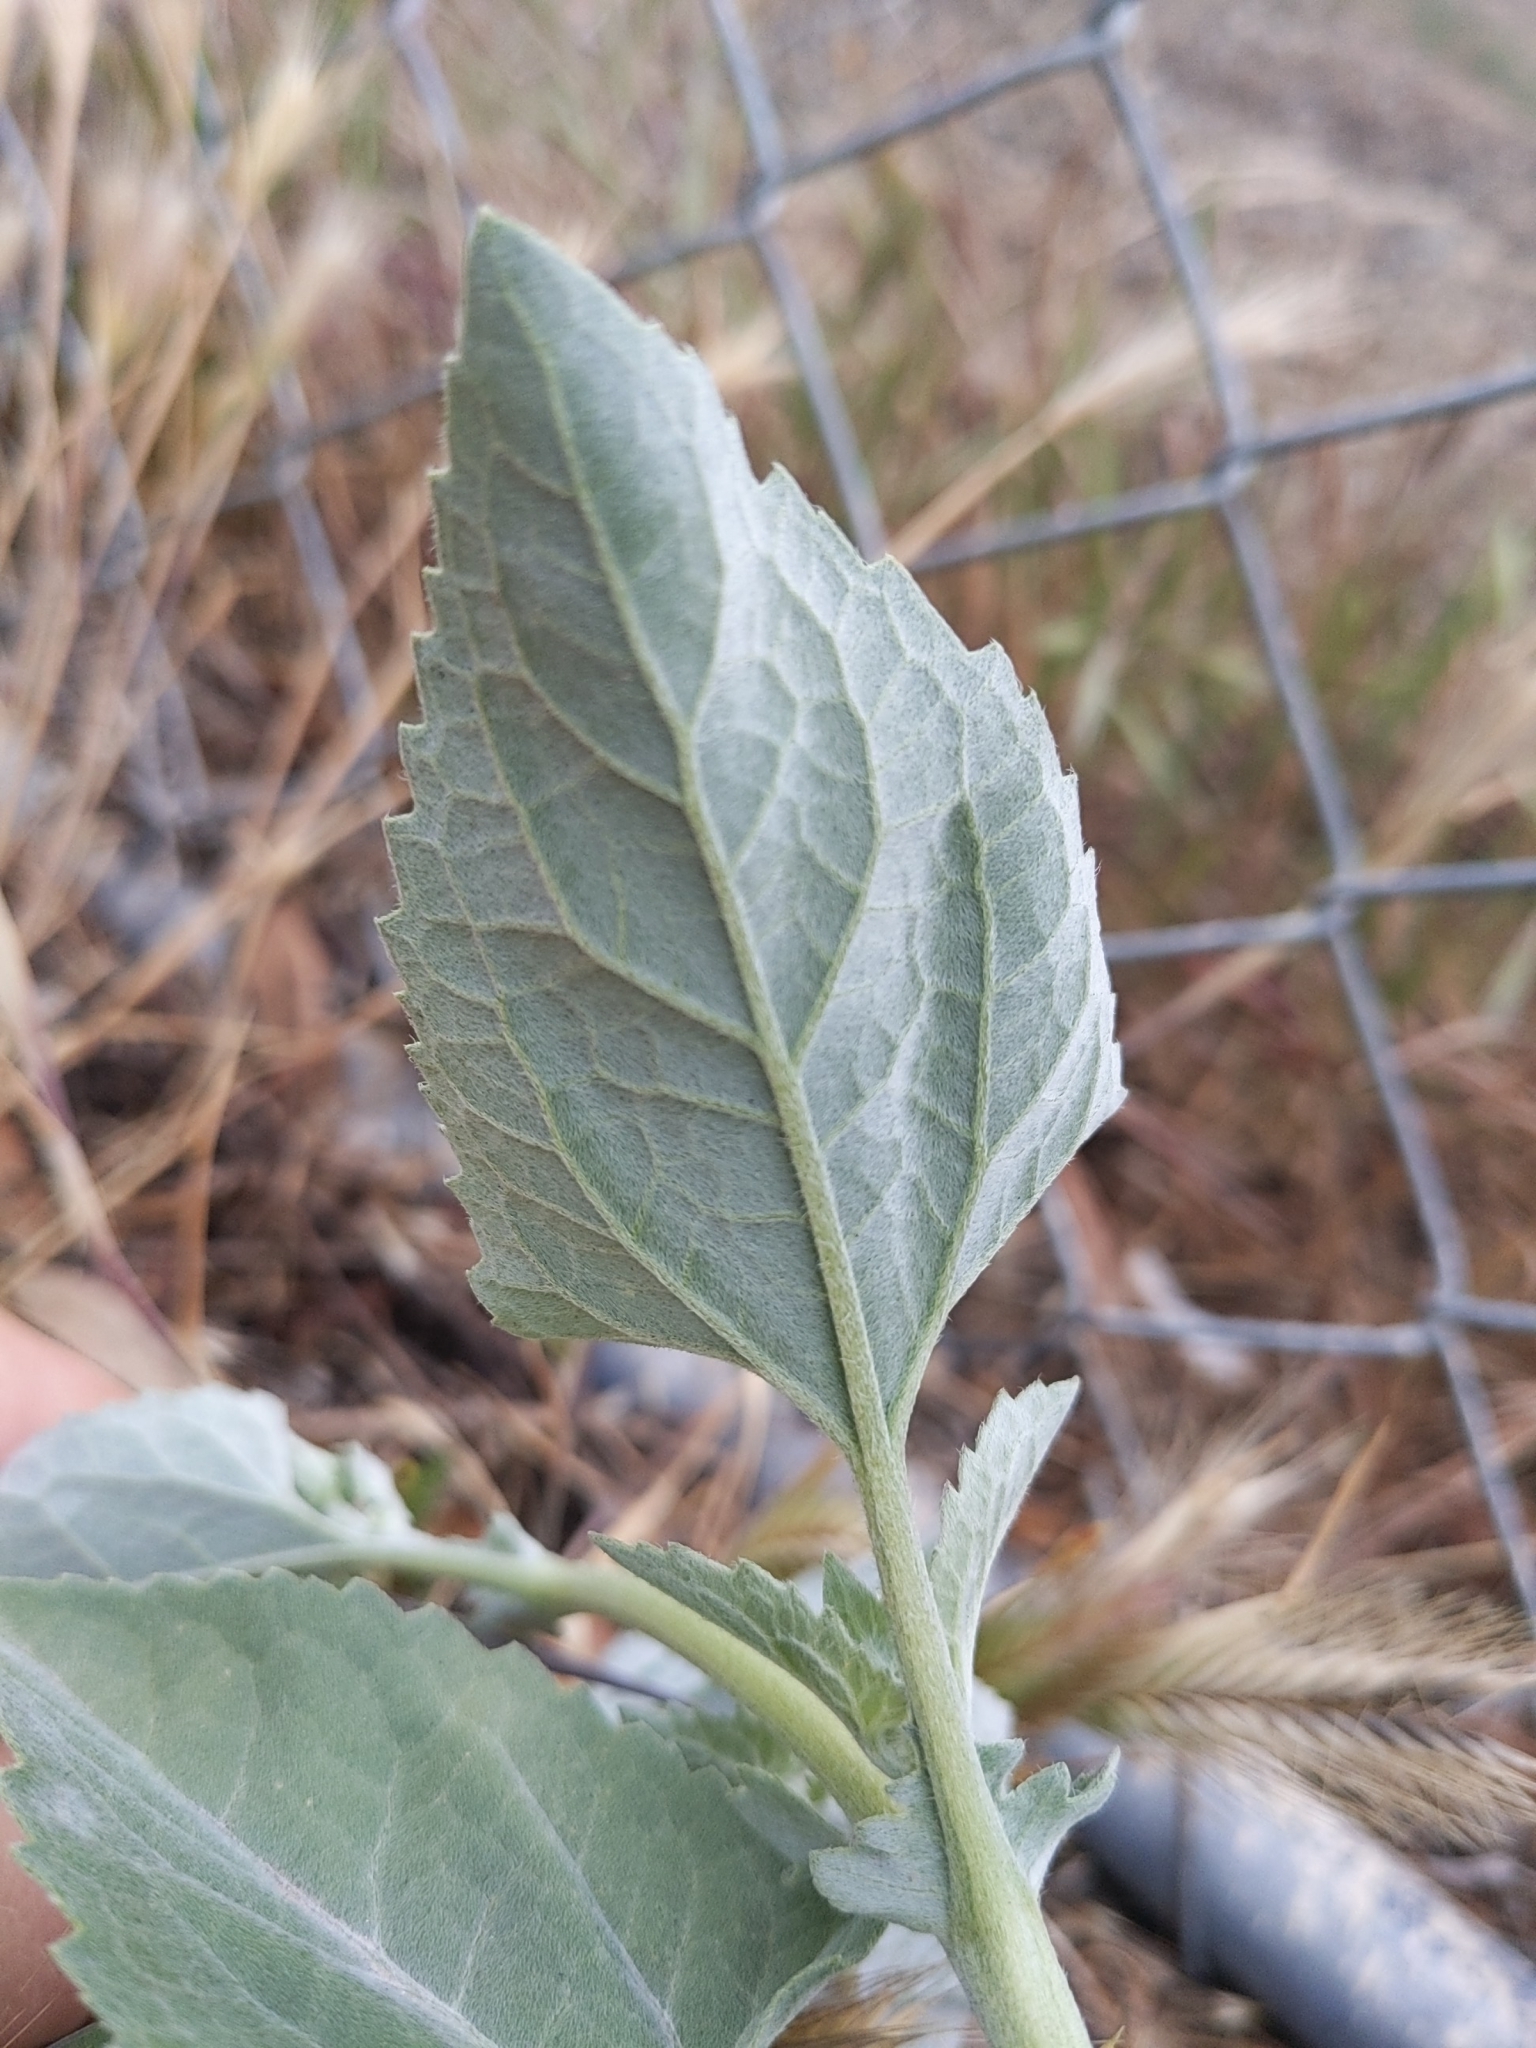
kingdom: Plantae
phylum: Tracheophyta
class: Magnoliopsida
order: Asterales
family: Asteraceae
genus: Verbesina
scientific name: Verbesina encelioides
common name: Golden crownbeard
